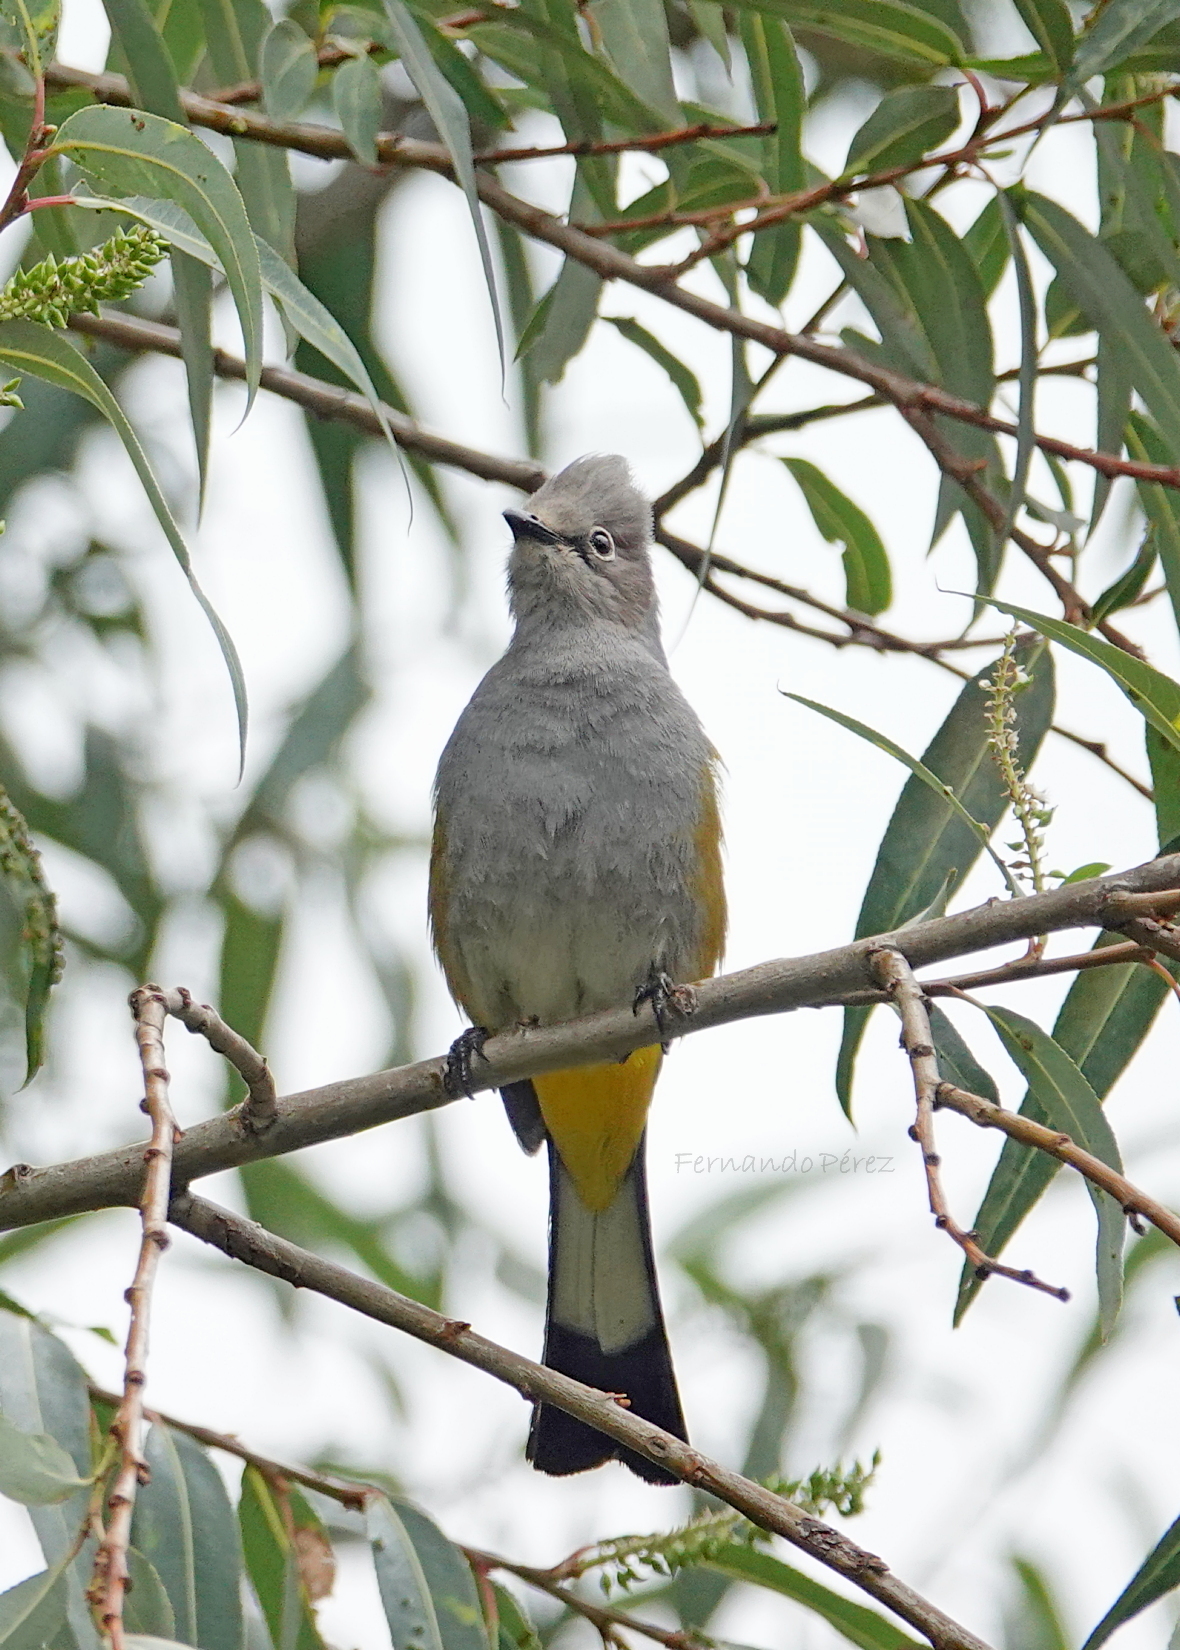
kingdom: Animalia
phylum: Chordata
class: Aves
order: Passeriformes
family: Ptilogonatidae
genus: Ptilogonys
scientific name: Ptilogonys cinereus
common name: Gray silky-flycatcher
